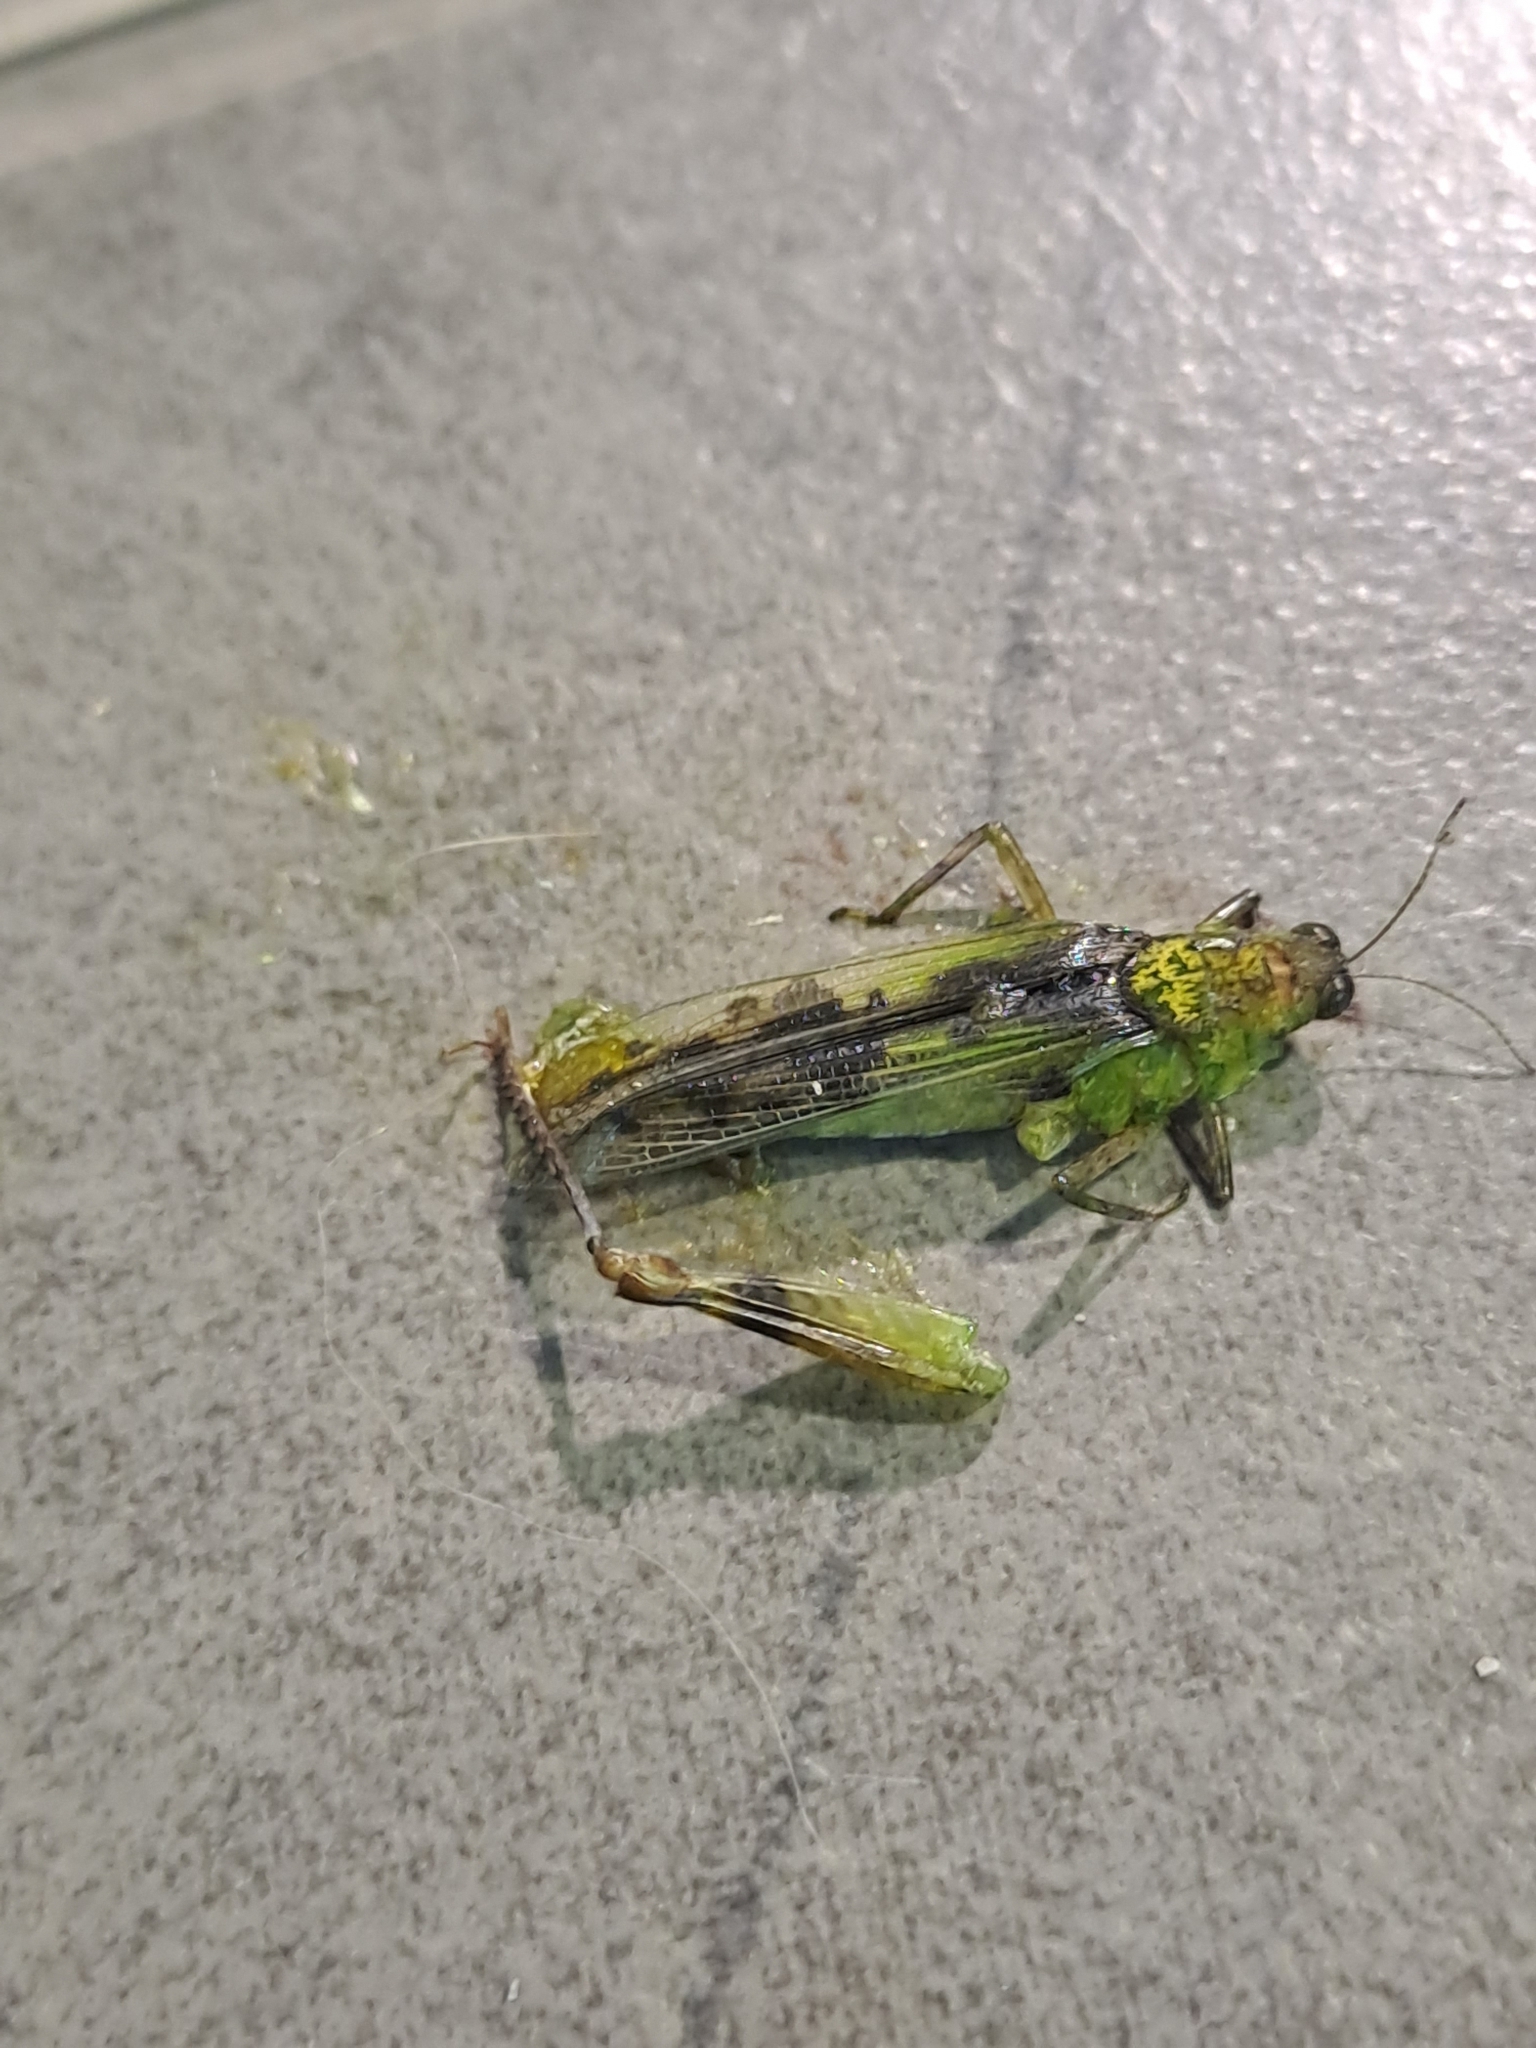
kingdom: Animalia
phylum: Arthropoda
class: Insecta
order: Orthoptera
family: Acrididae
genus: Paulinia
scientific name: Paulinia acuminata
